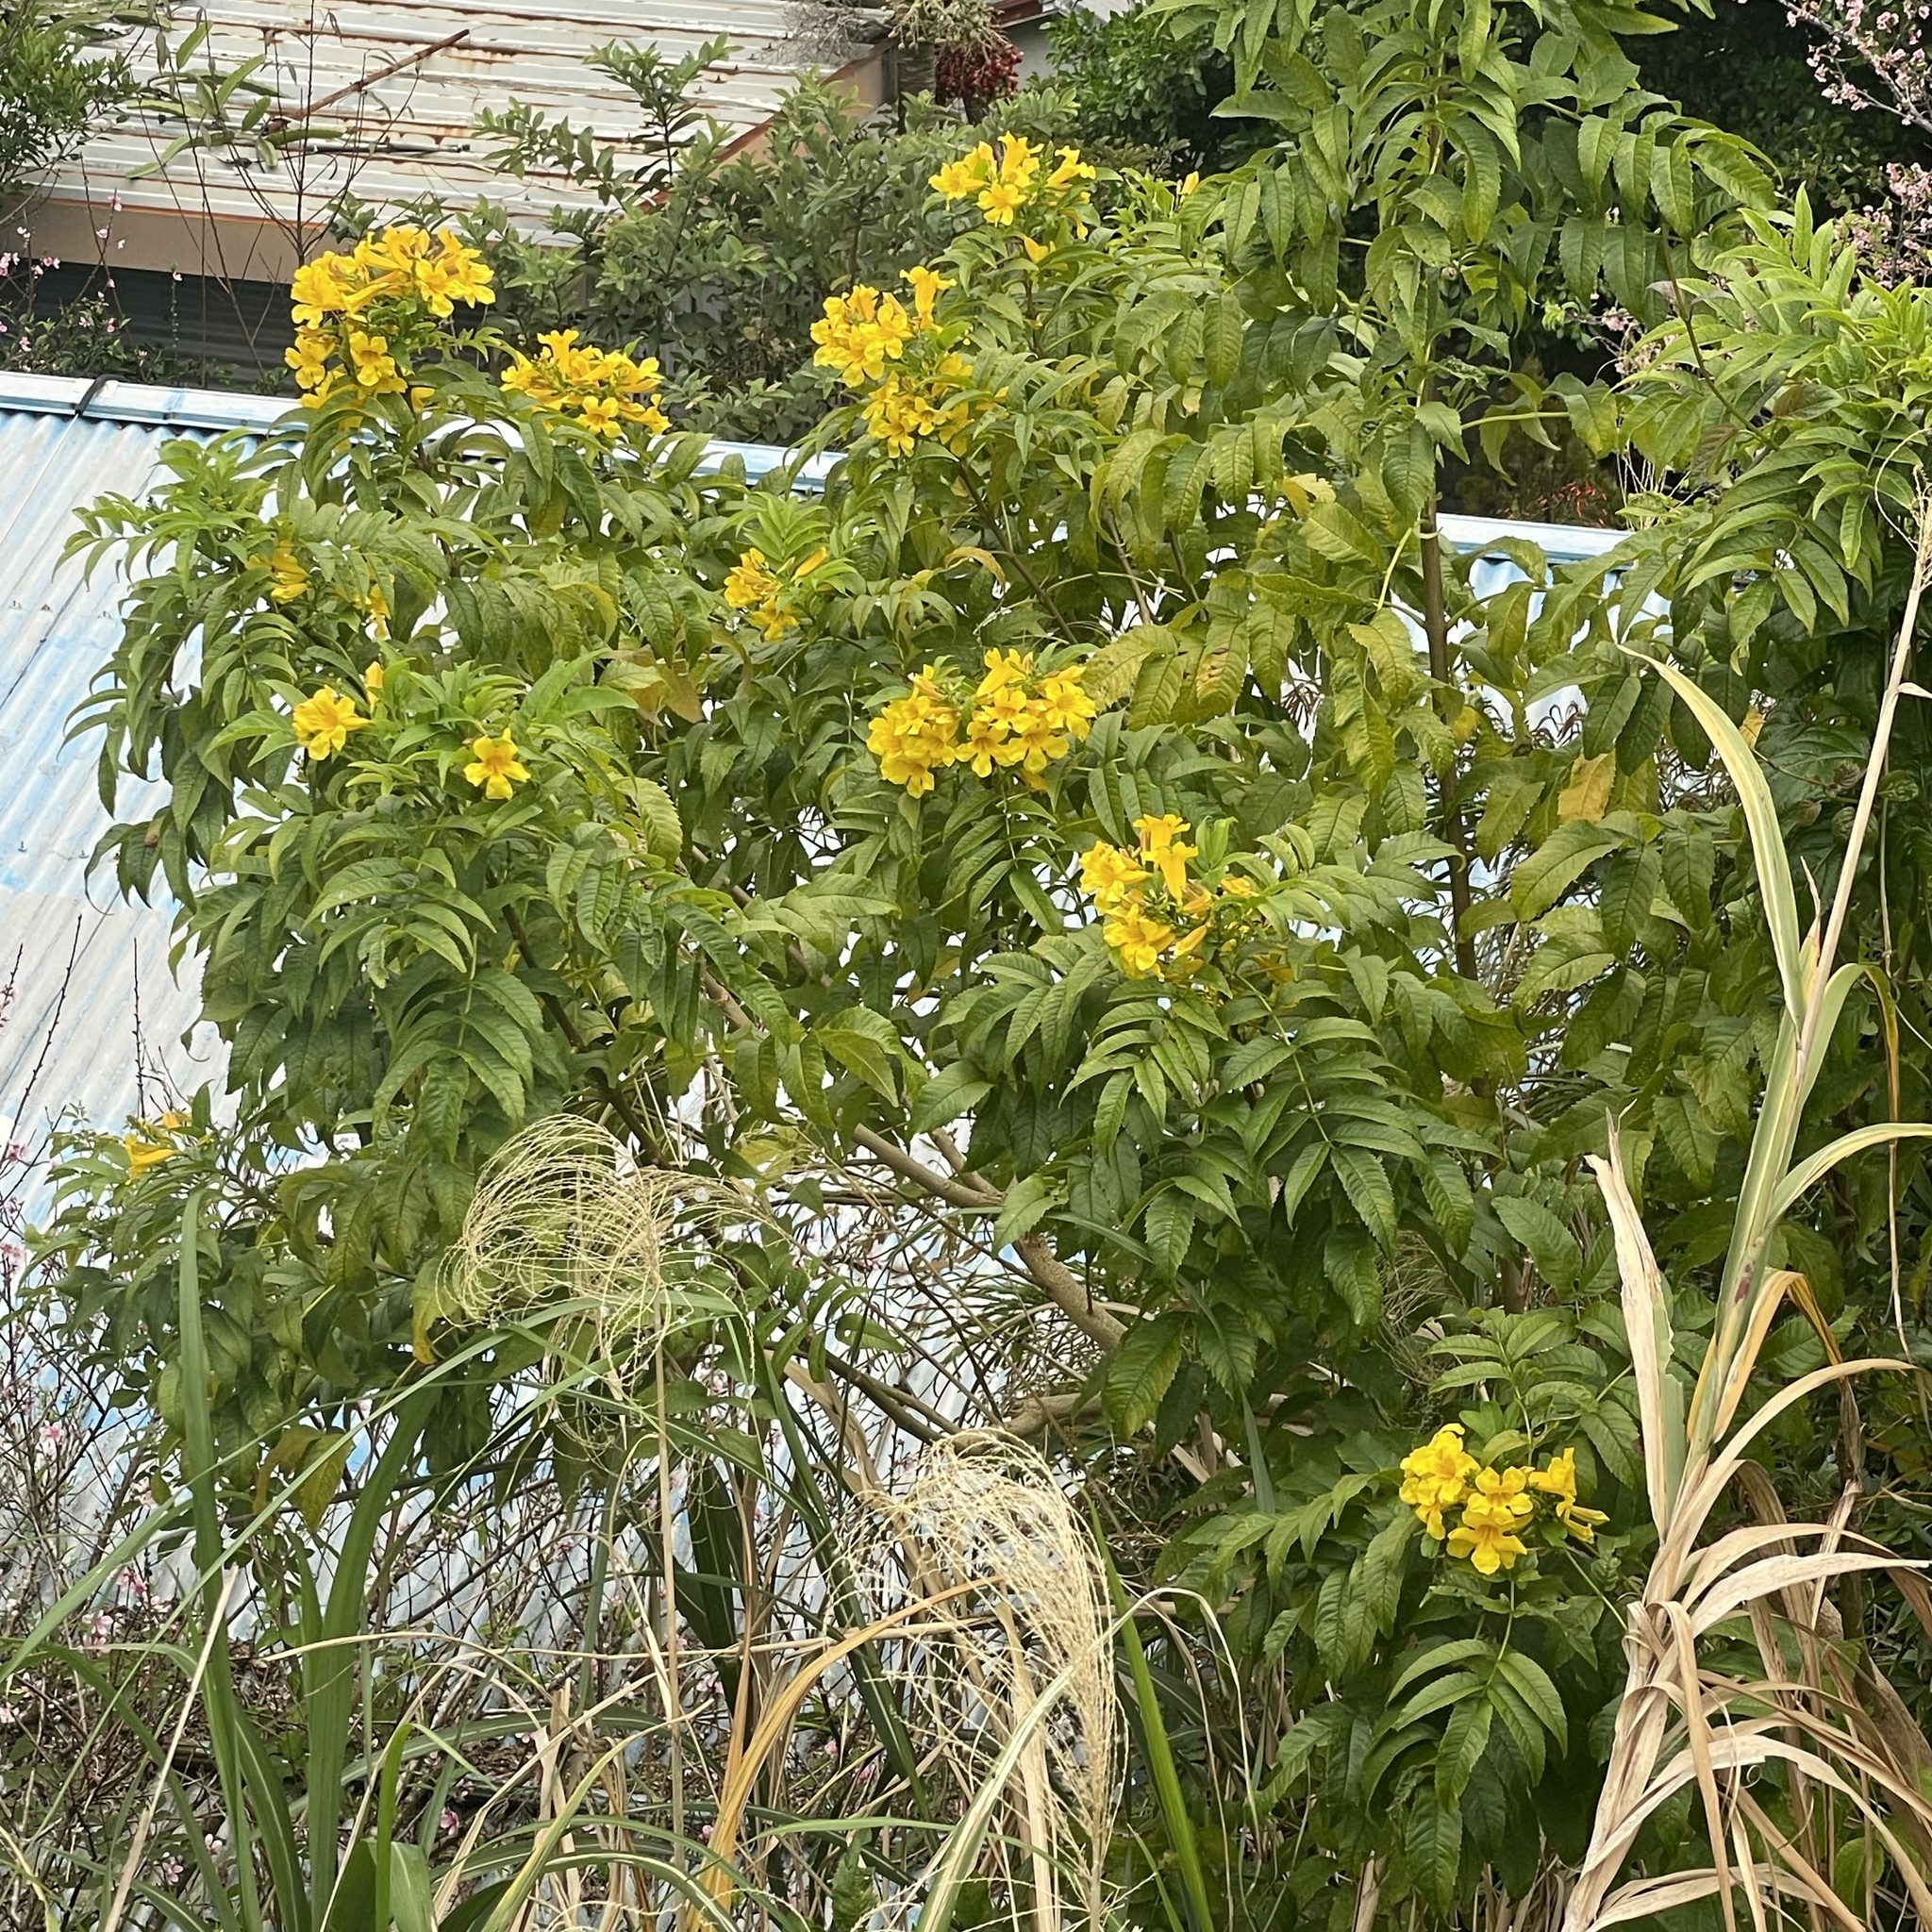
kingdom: Plantae
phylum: Tracheophyta
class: Magnoliopsida
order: Lamiales
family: Bignoniaceae
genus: Tecoma
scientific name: Tecoma stans
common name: Yellow trumpetbush
